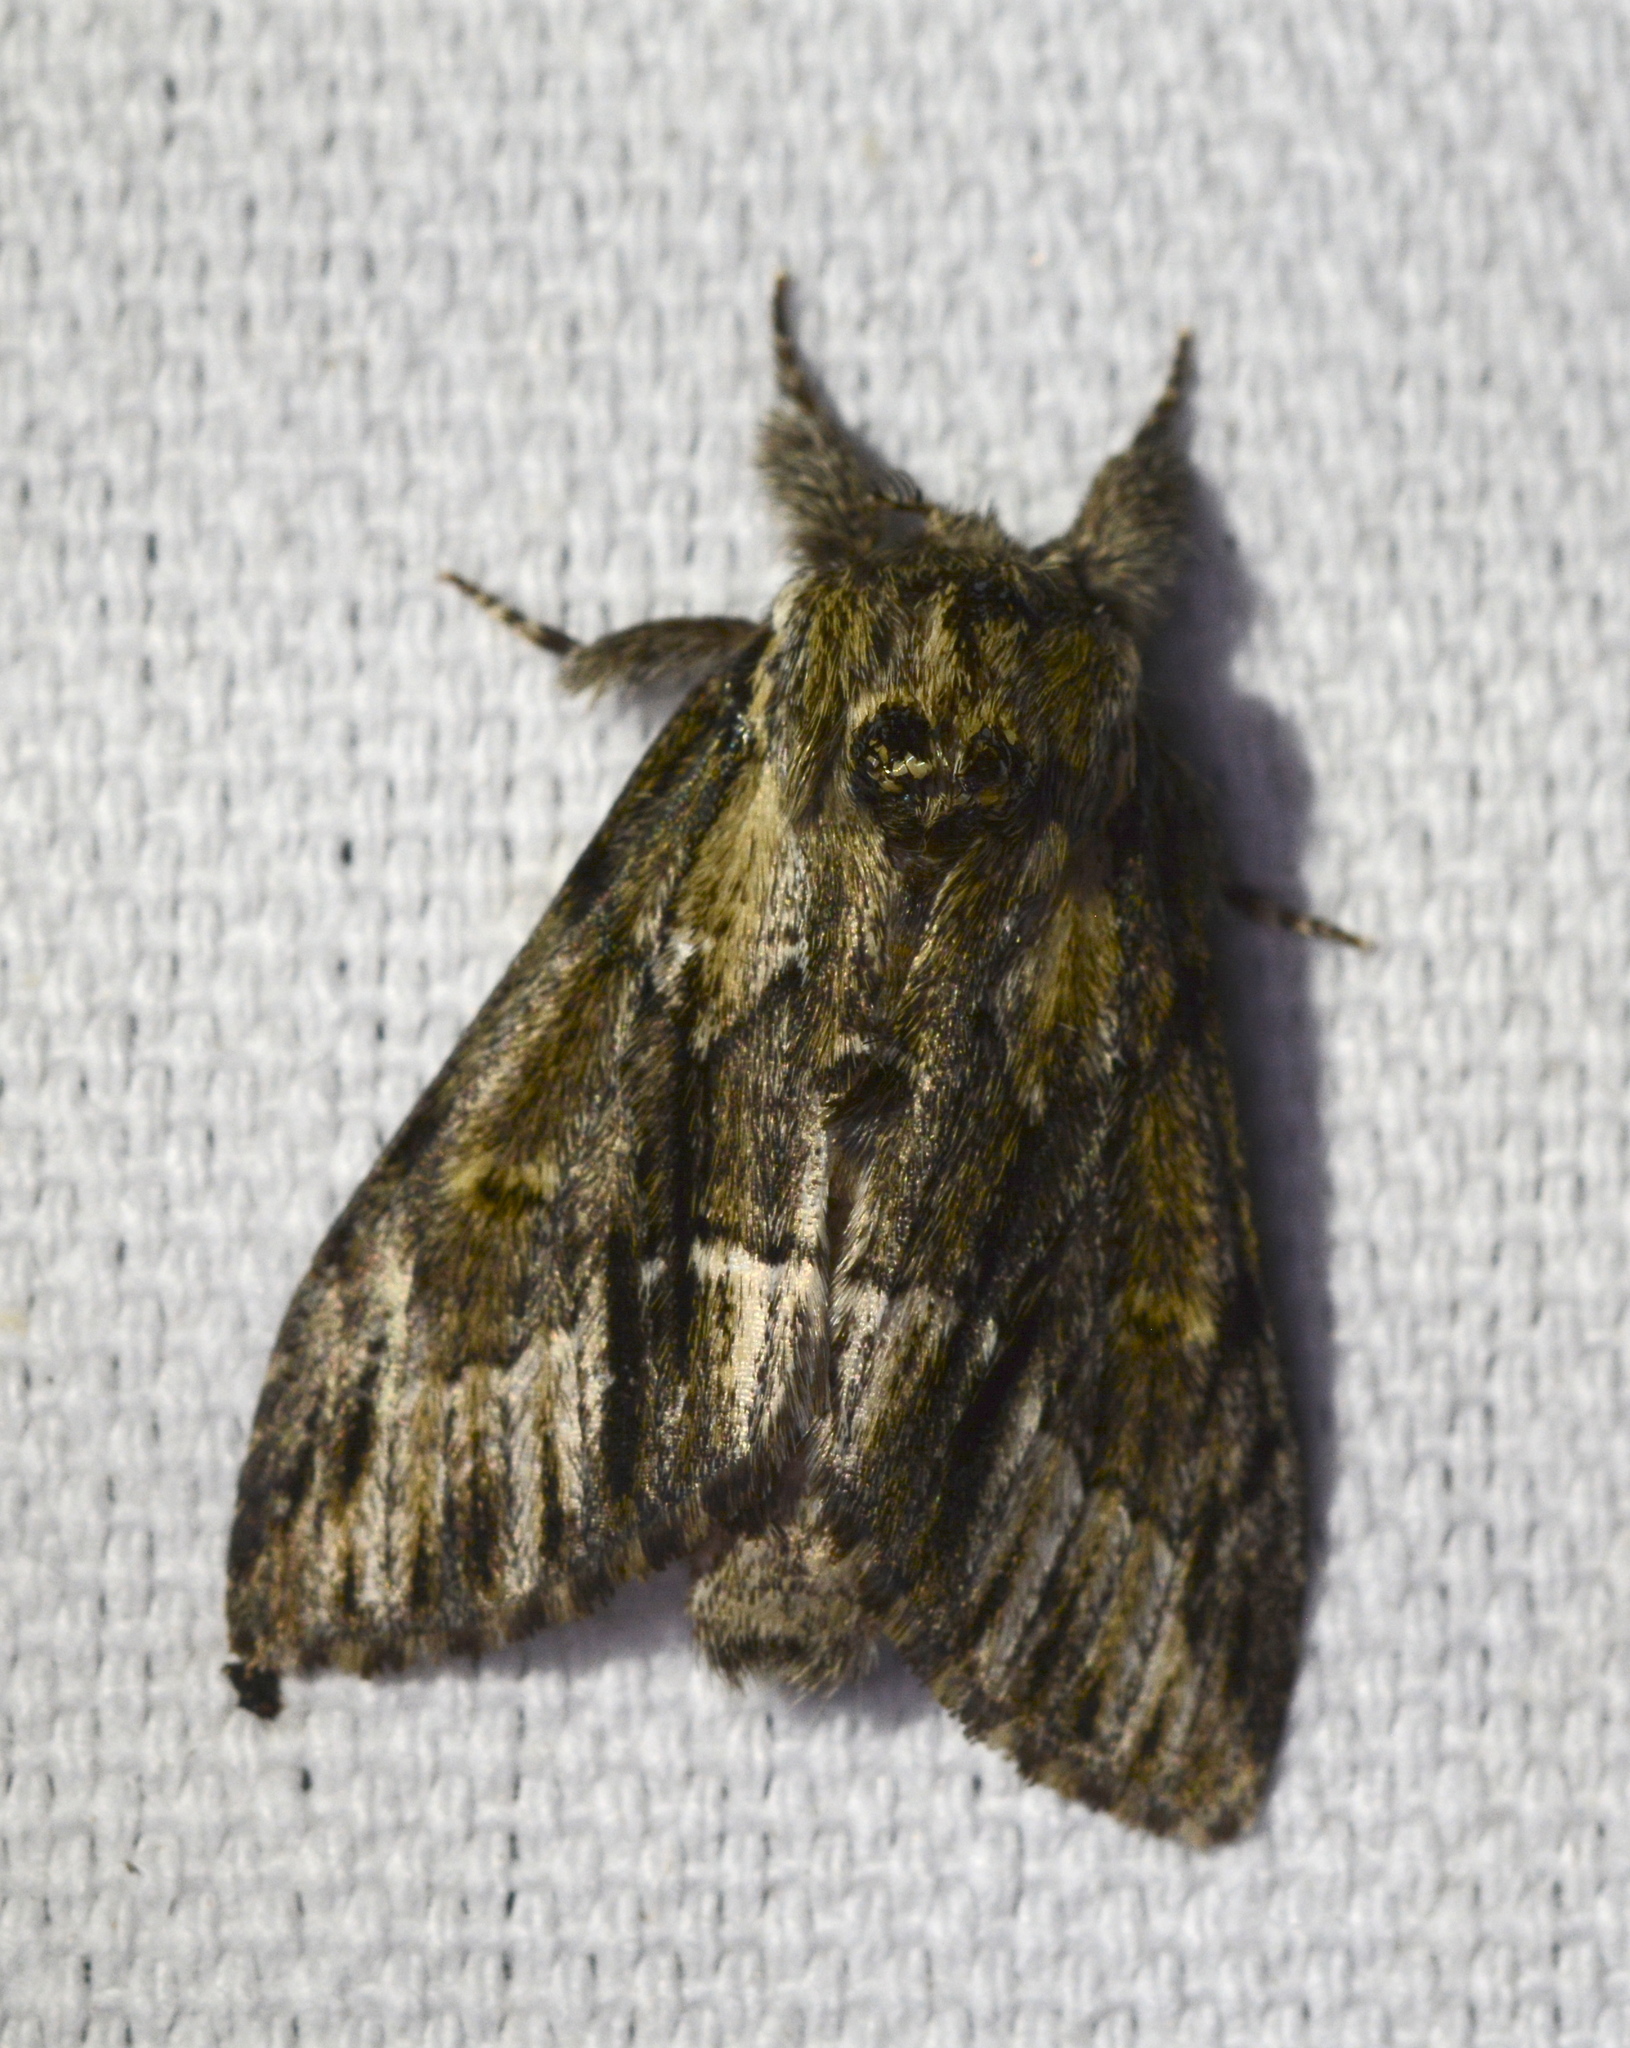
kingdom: Animalia
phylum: Arthropoda
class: Insecta
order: Lepidoptera
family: Notodontidae
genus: Paraeschra
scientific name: Paraeschra georgica
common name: Georgian prominent
